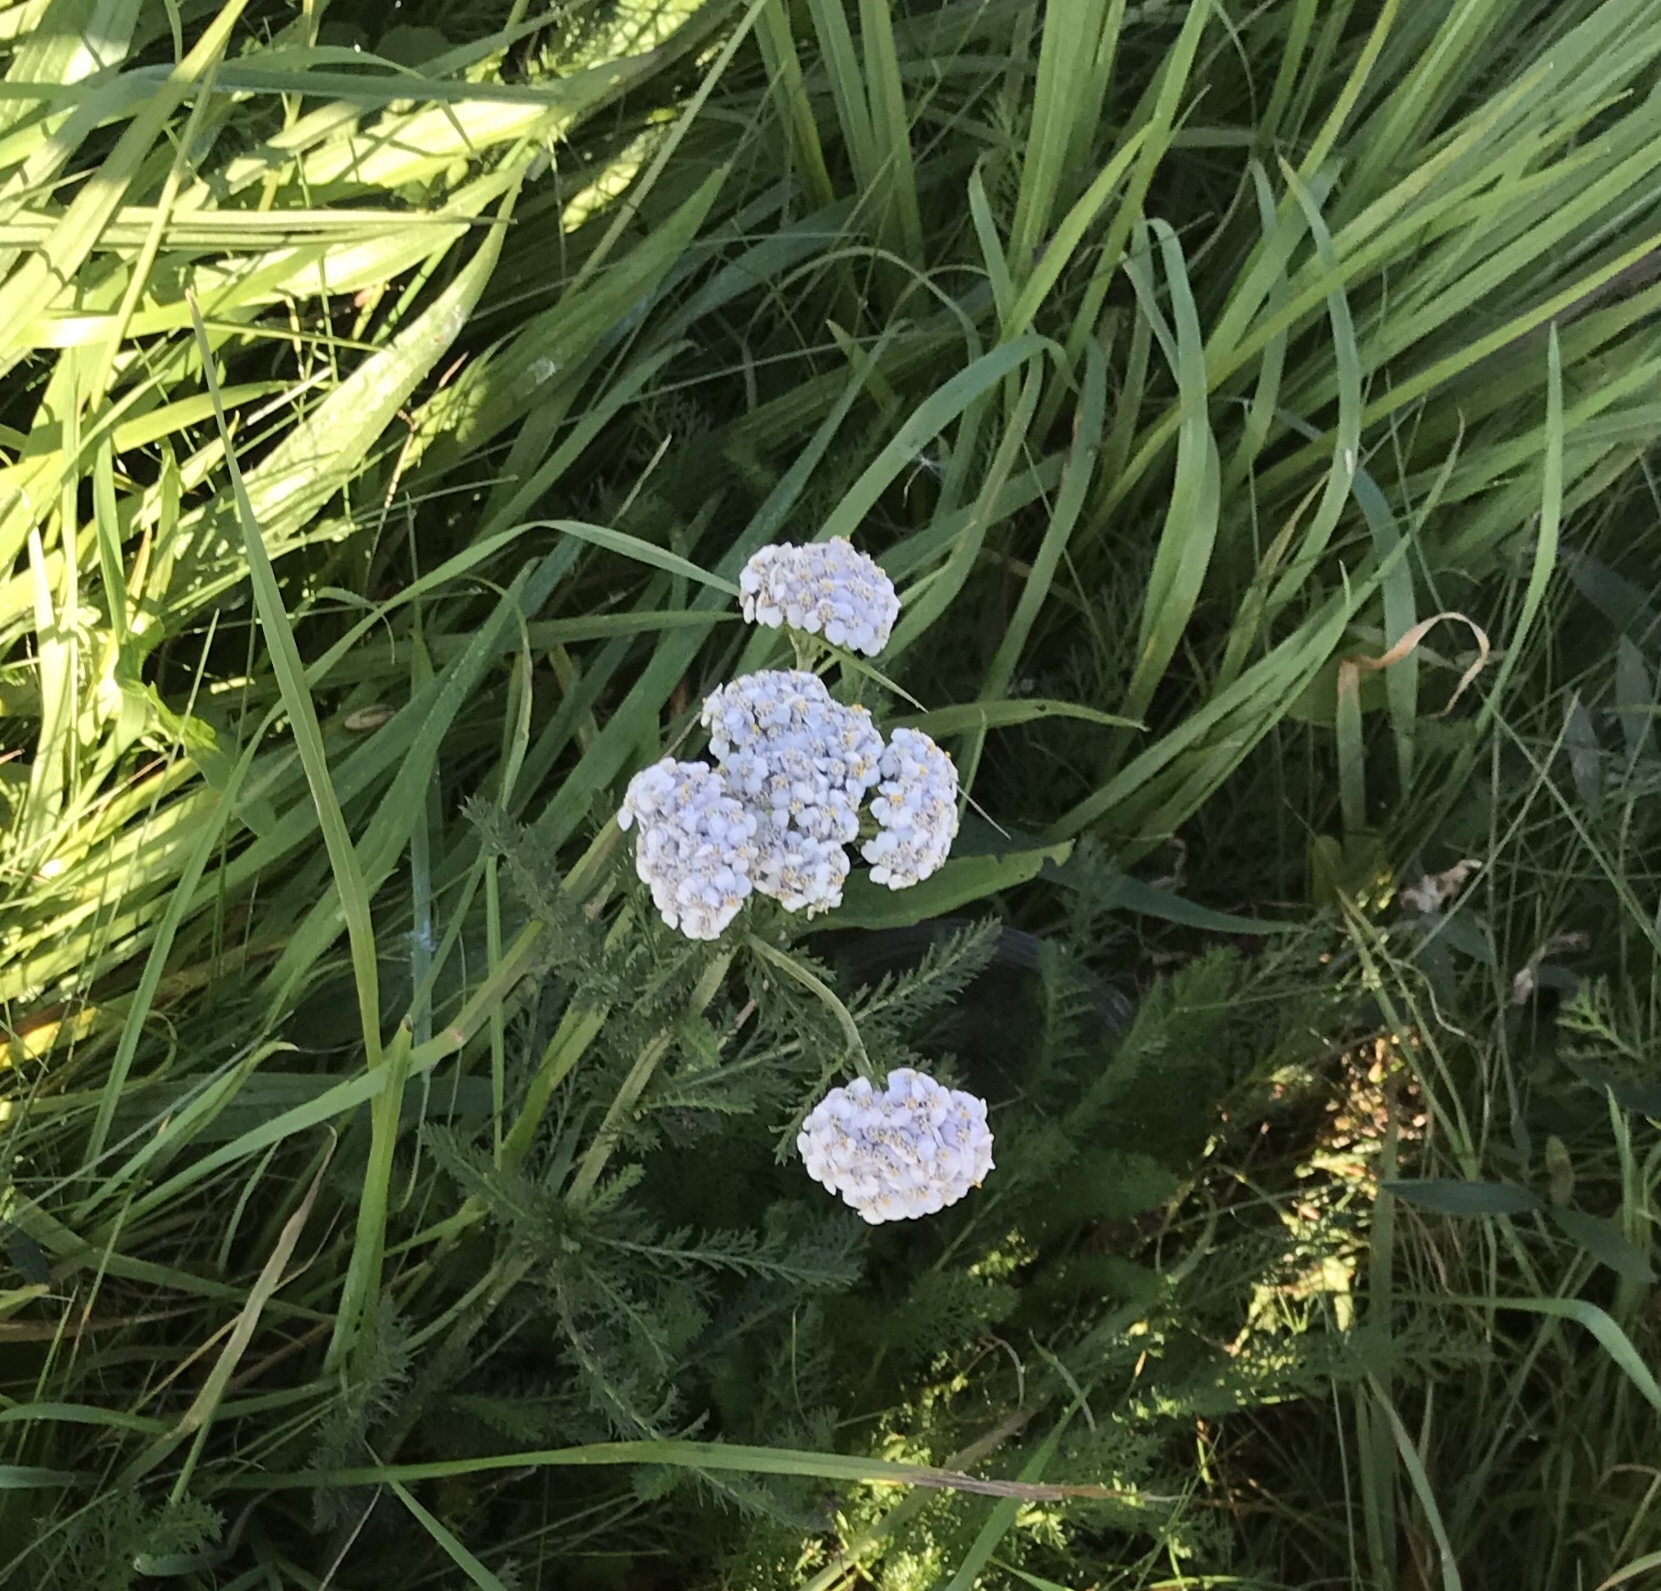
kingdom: Plantae
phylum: Tracheophyta
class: Magnoliopsida
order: Asterales
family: Asteraceae
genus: Achillea
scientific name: Achillea millefolium
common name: Yarrow
